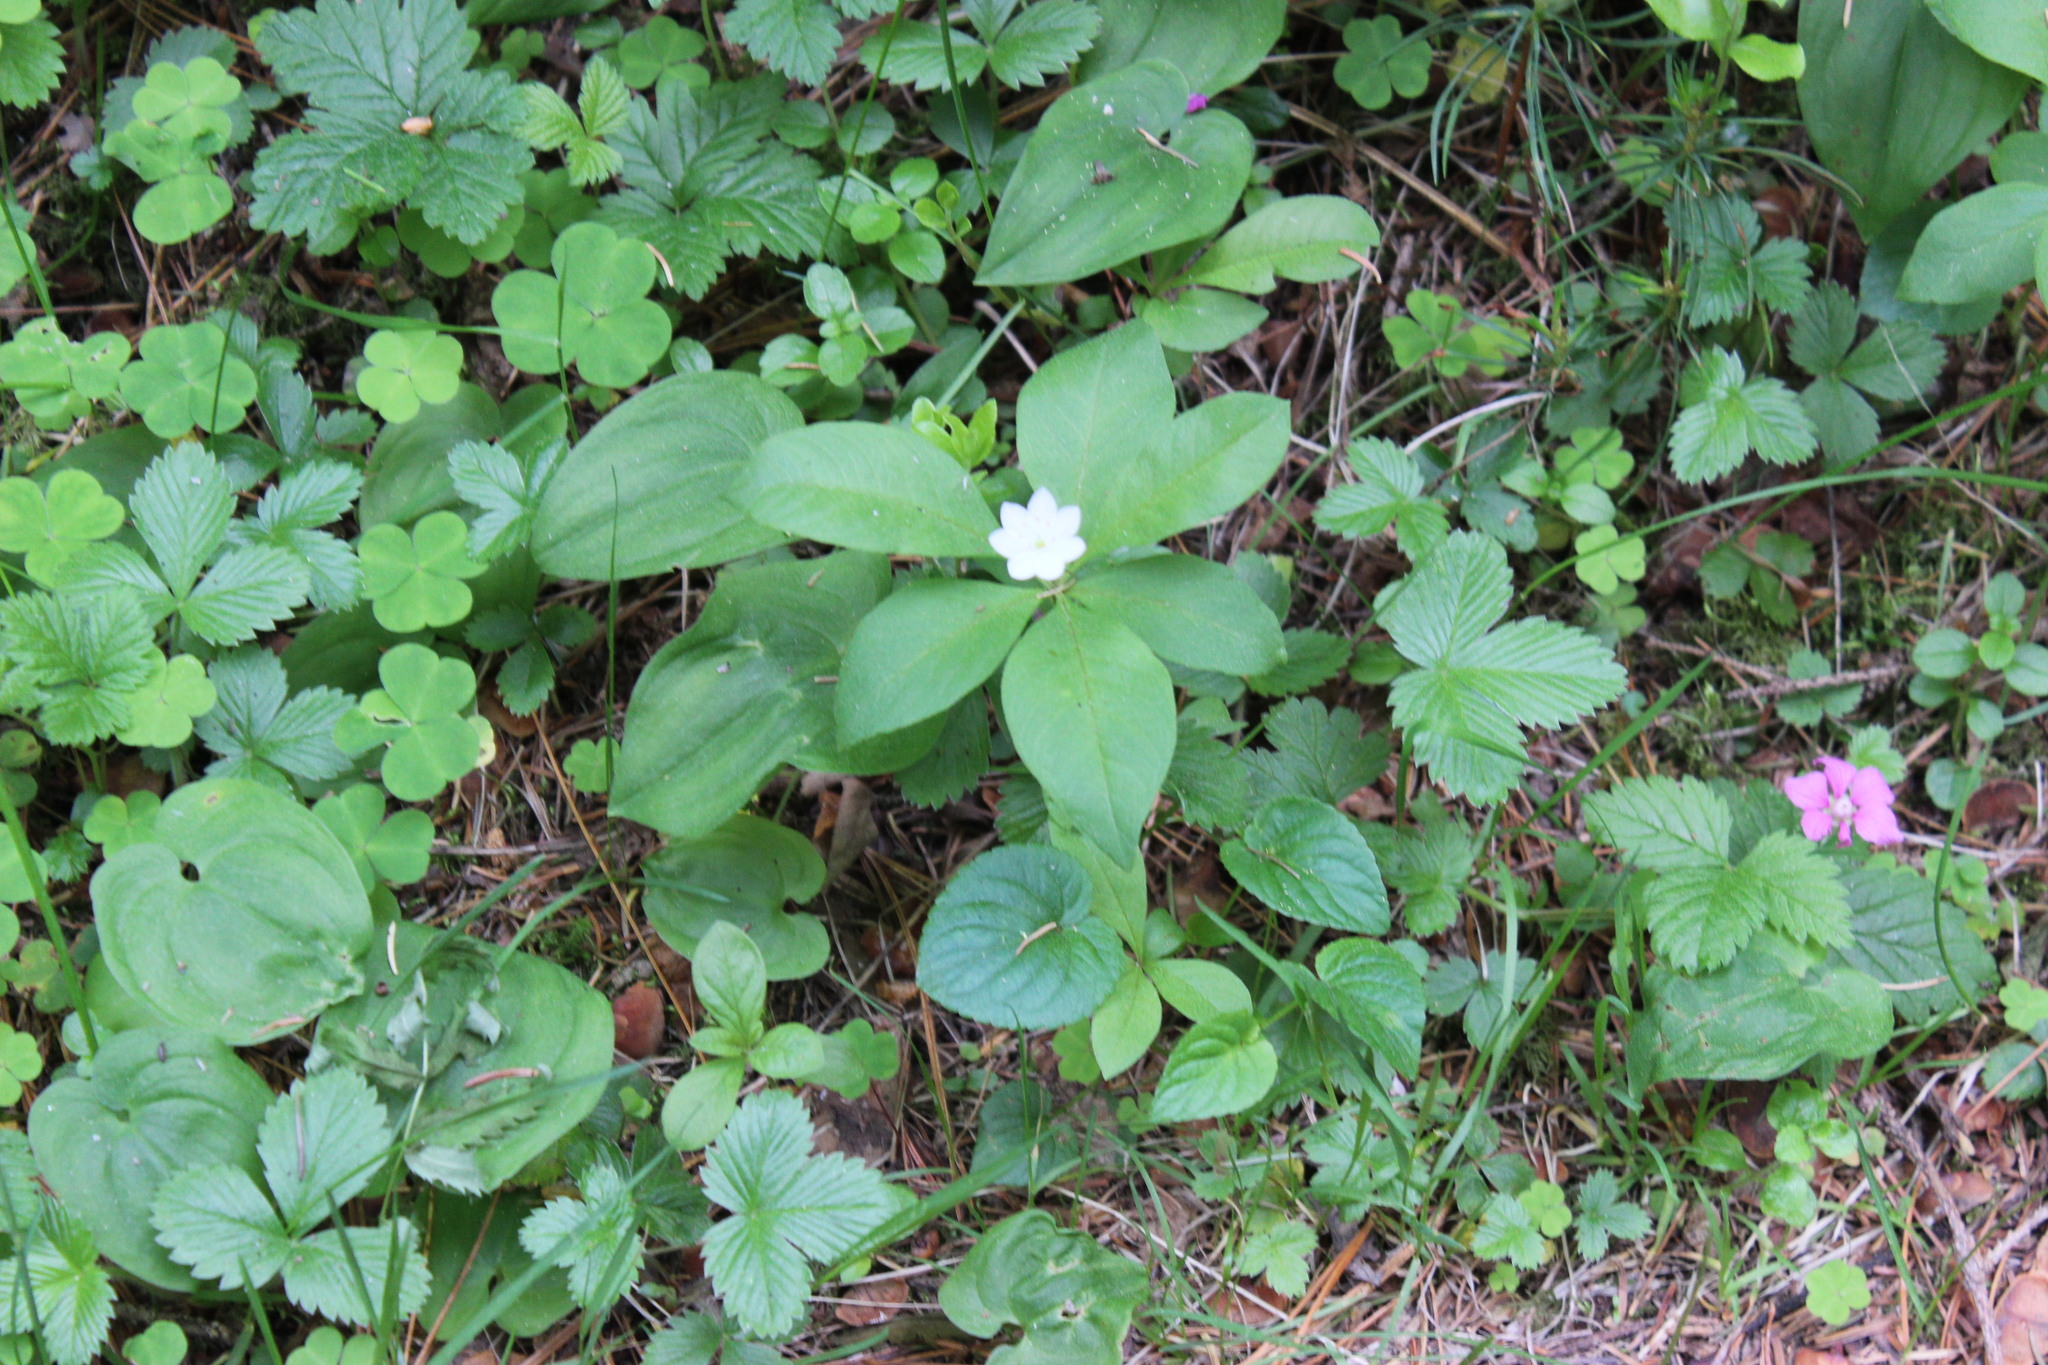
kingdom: Plantae
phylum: Tracheophyta
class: Magnoliopsida
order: Ericales
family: Primulaceae
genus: Lysimachia
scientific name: Lysimachia europaea
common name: Arctic starflower
